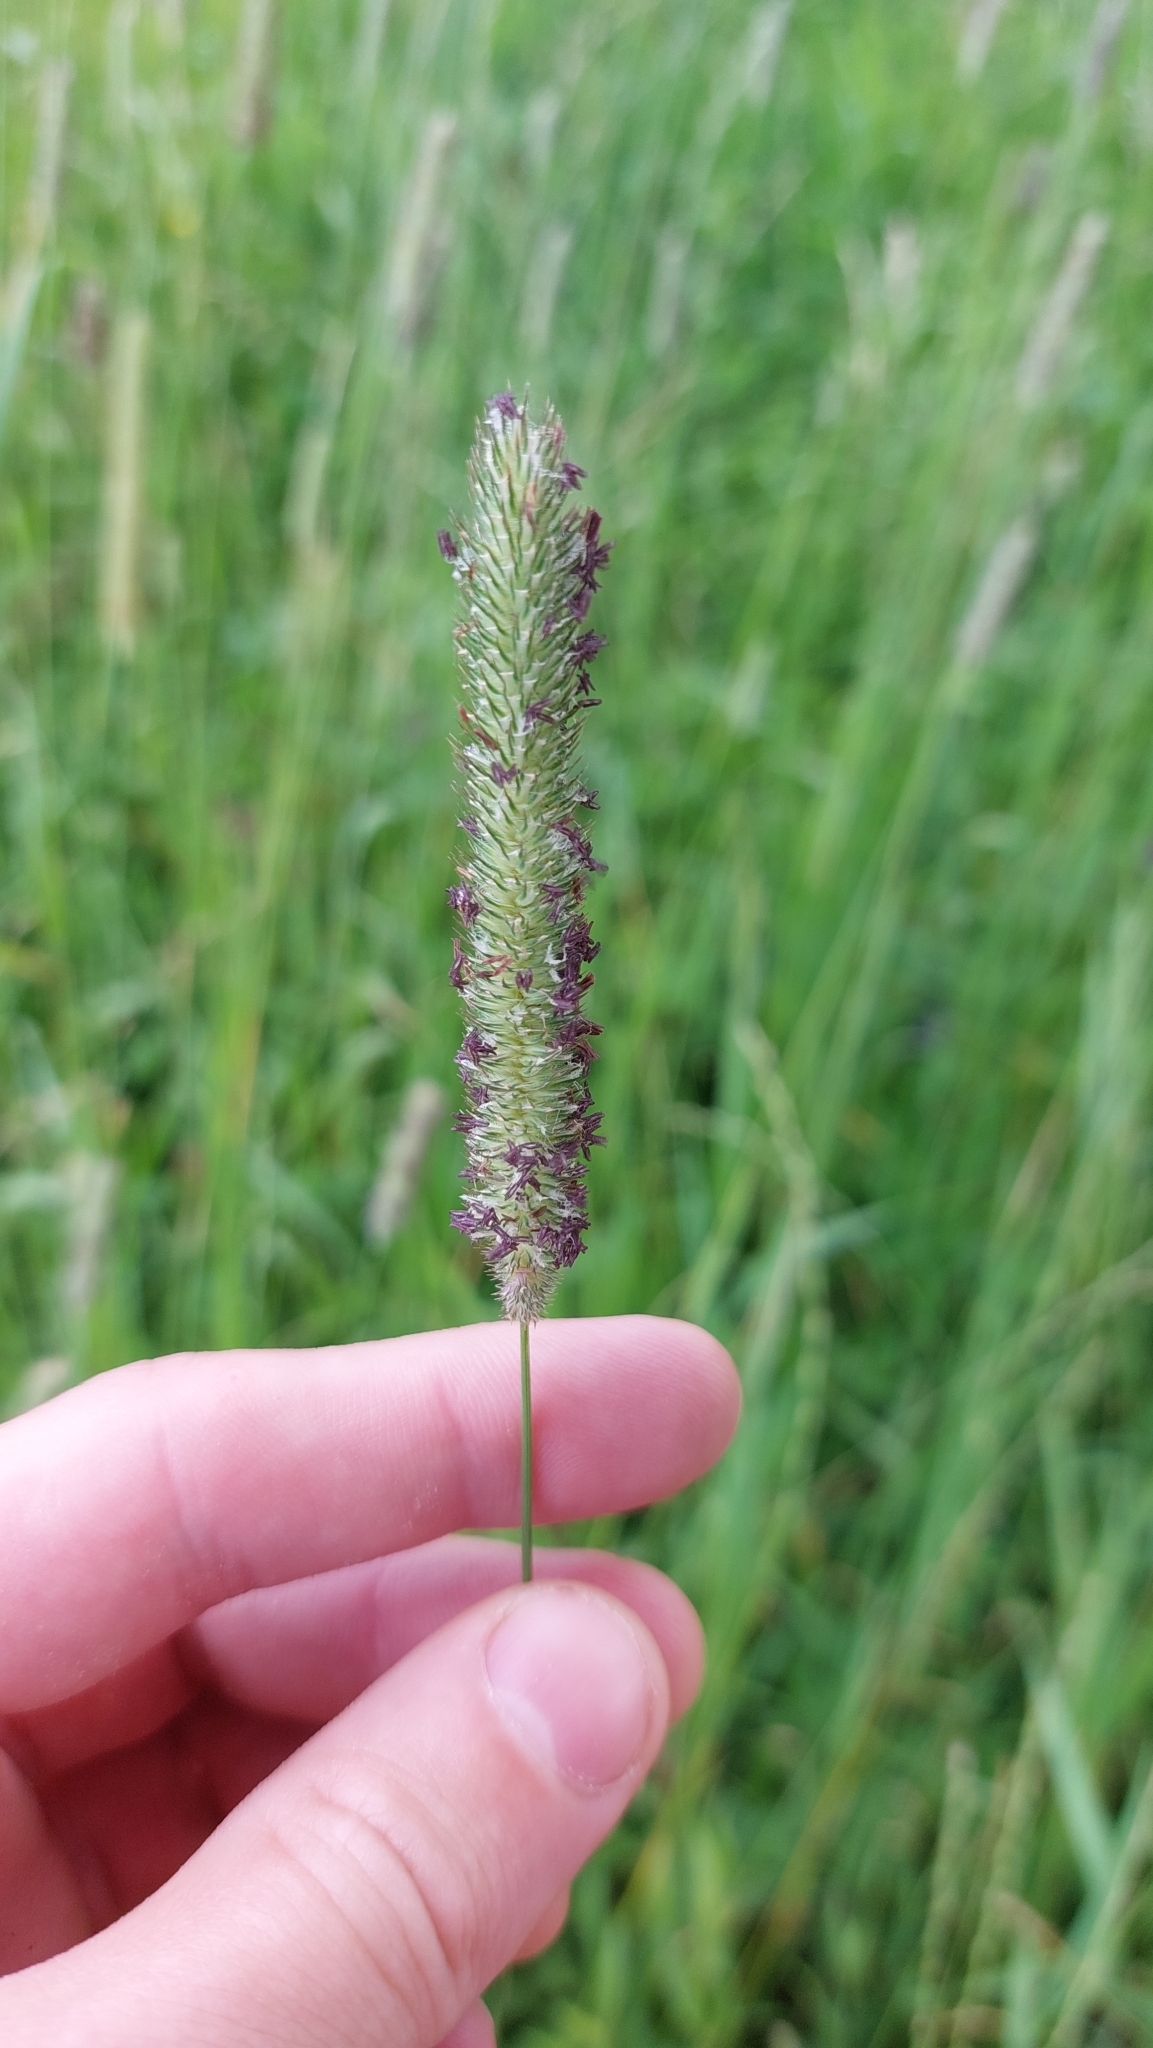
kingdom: Plantae
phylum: Tracheophyta
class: Liliopsida
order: Poales
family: Poaceae
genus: Phleum
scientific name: Phleum pratense
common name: Timothy grass
